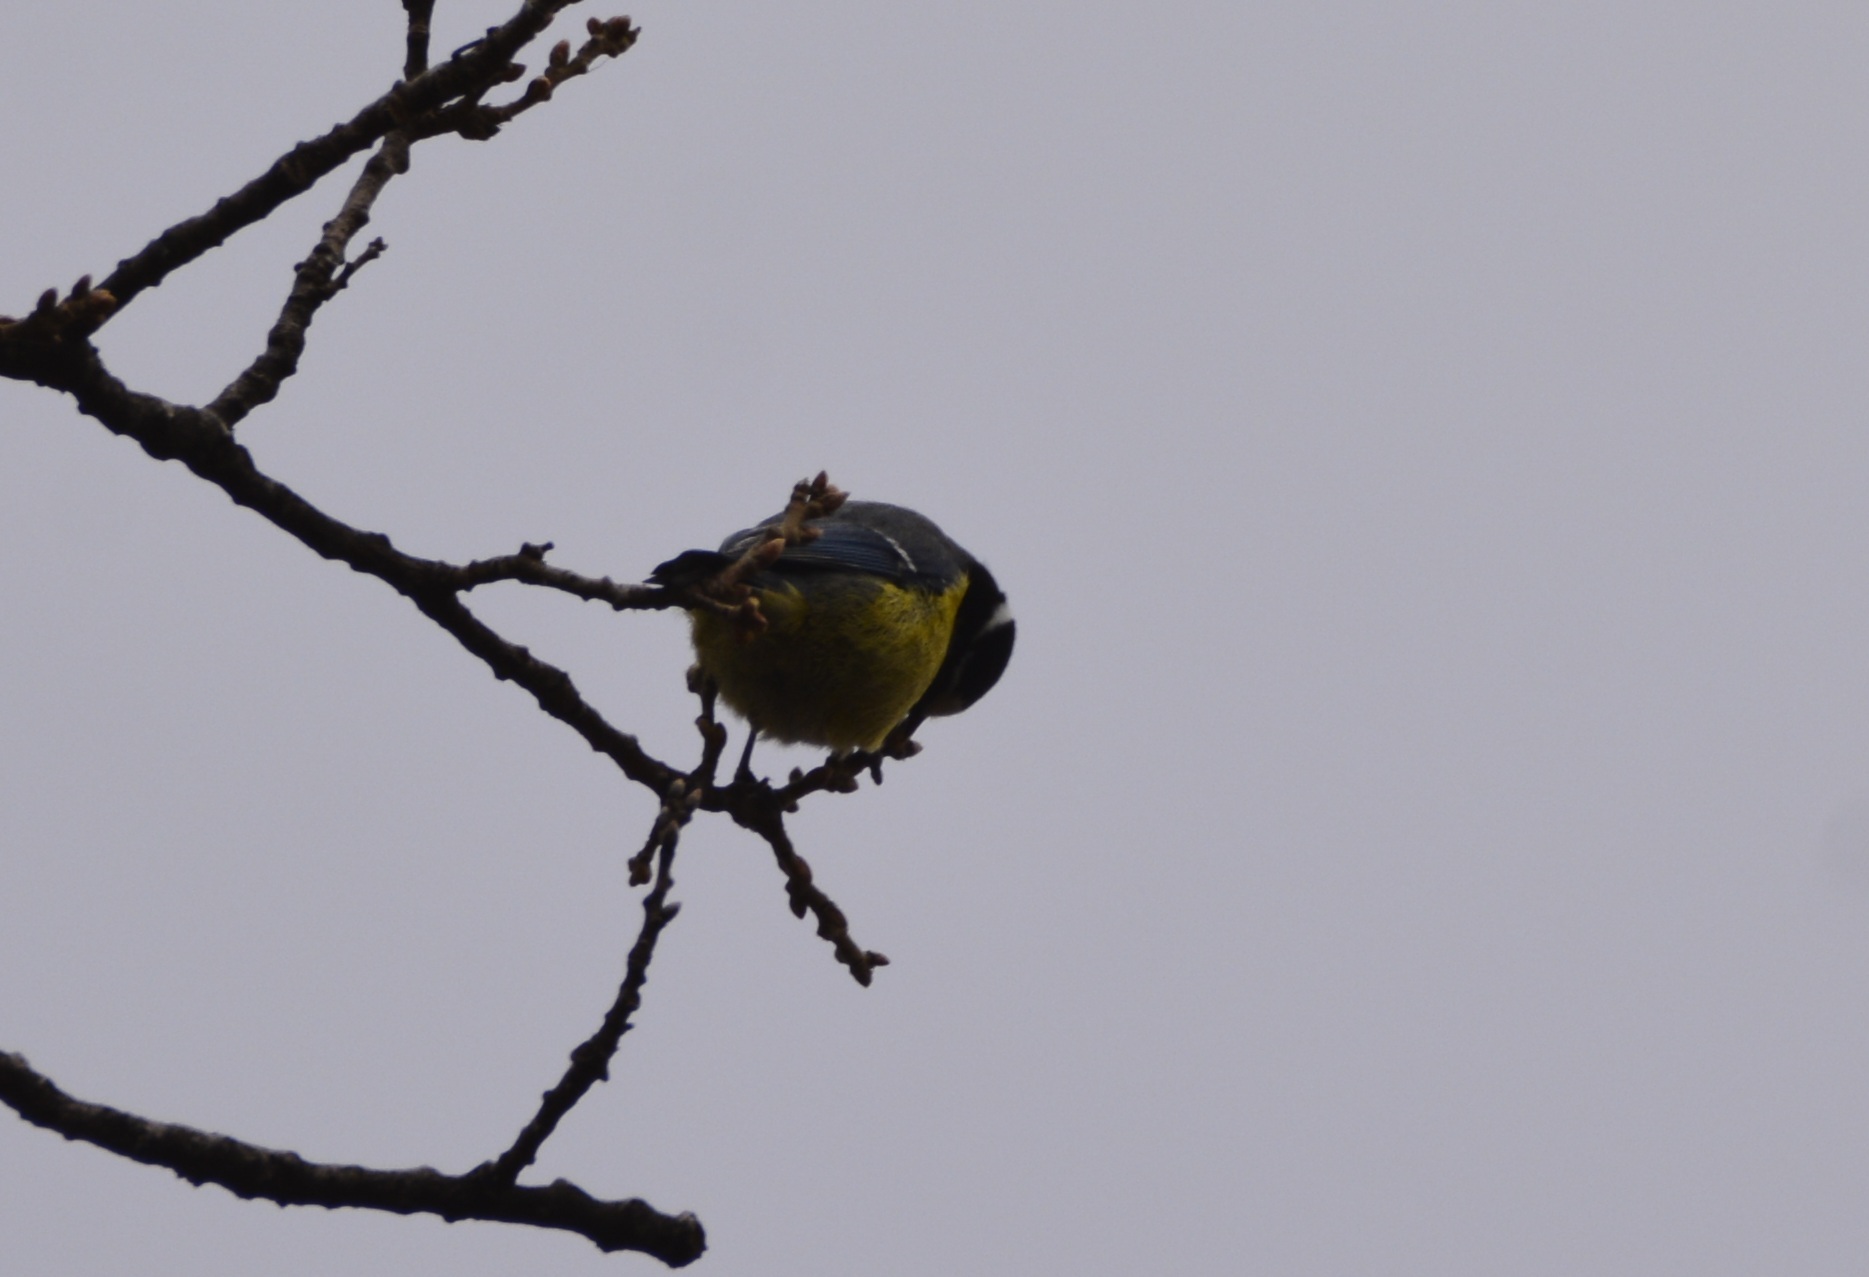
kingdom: Animalia
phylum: Chordata
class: Aves
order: Passeriformes
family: Paridae
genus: Cyanistes
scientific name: Cyanistes teneriffae
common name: African blue tit
